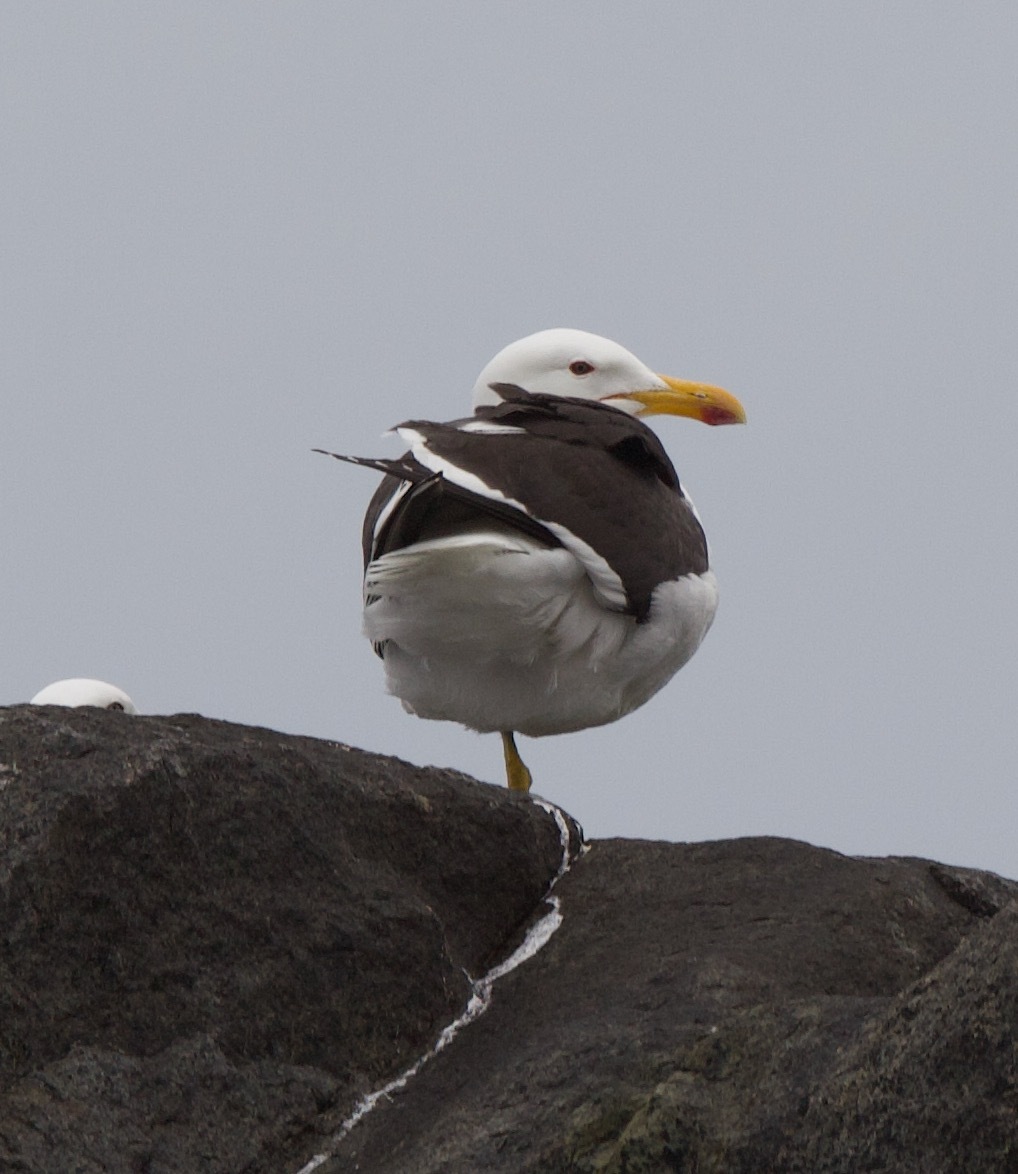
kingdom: Animalia
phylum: Chordata
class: Aves
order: Charadriiformes
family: Laridae
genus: Larus
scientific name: Larus dominicanus
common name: Kelp gull
